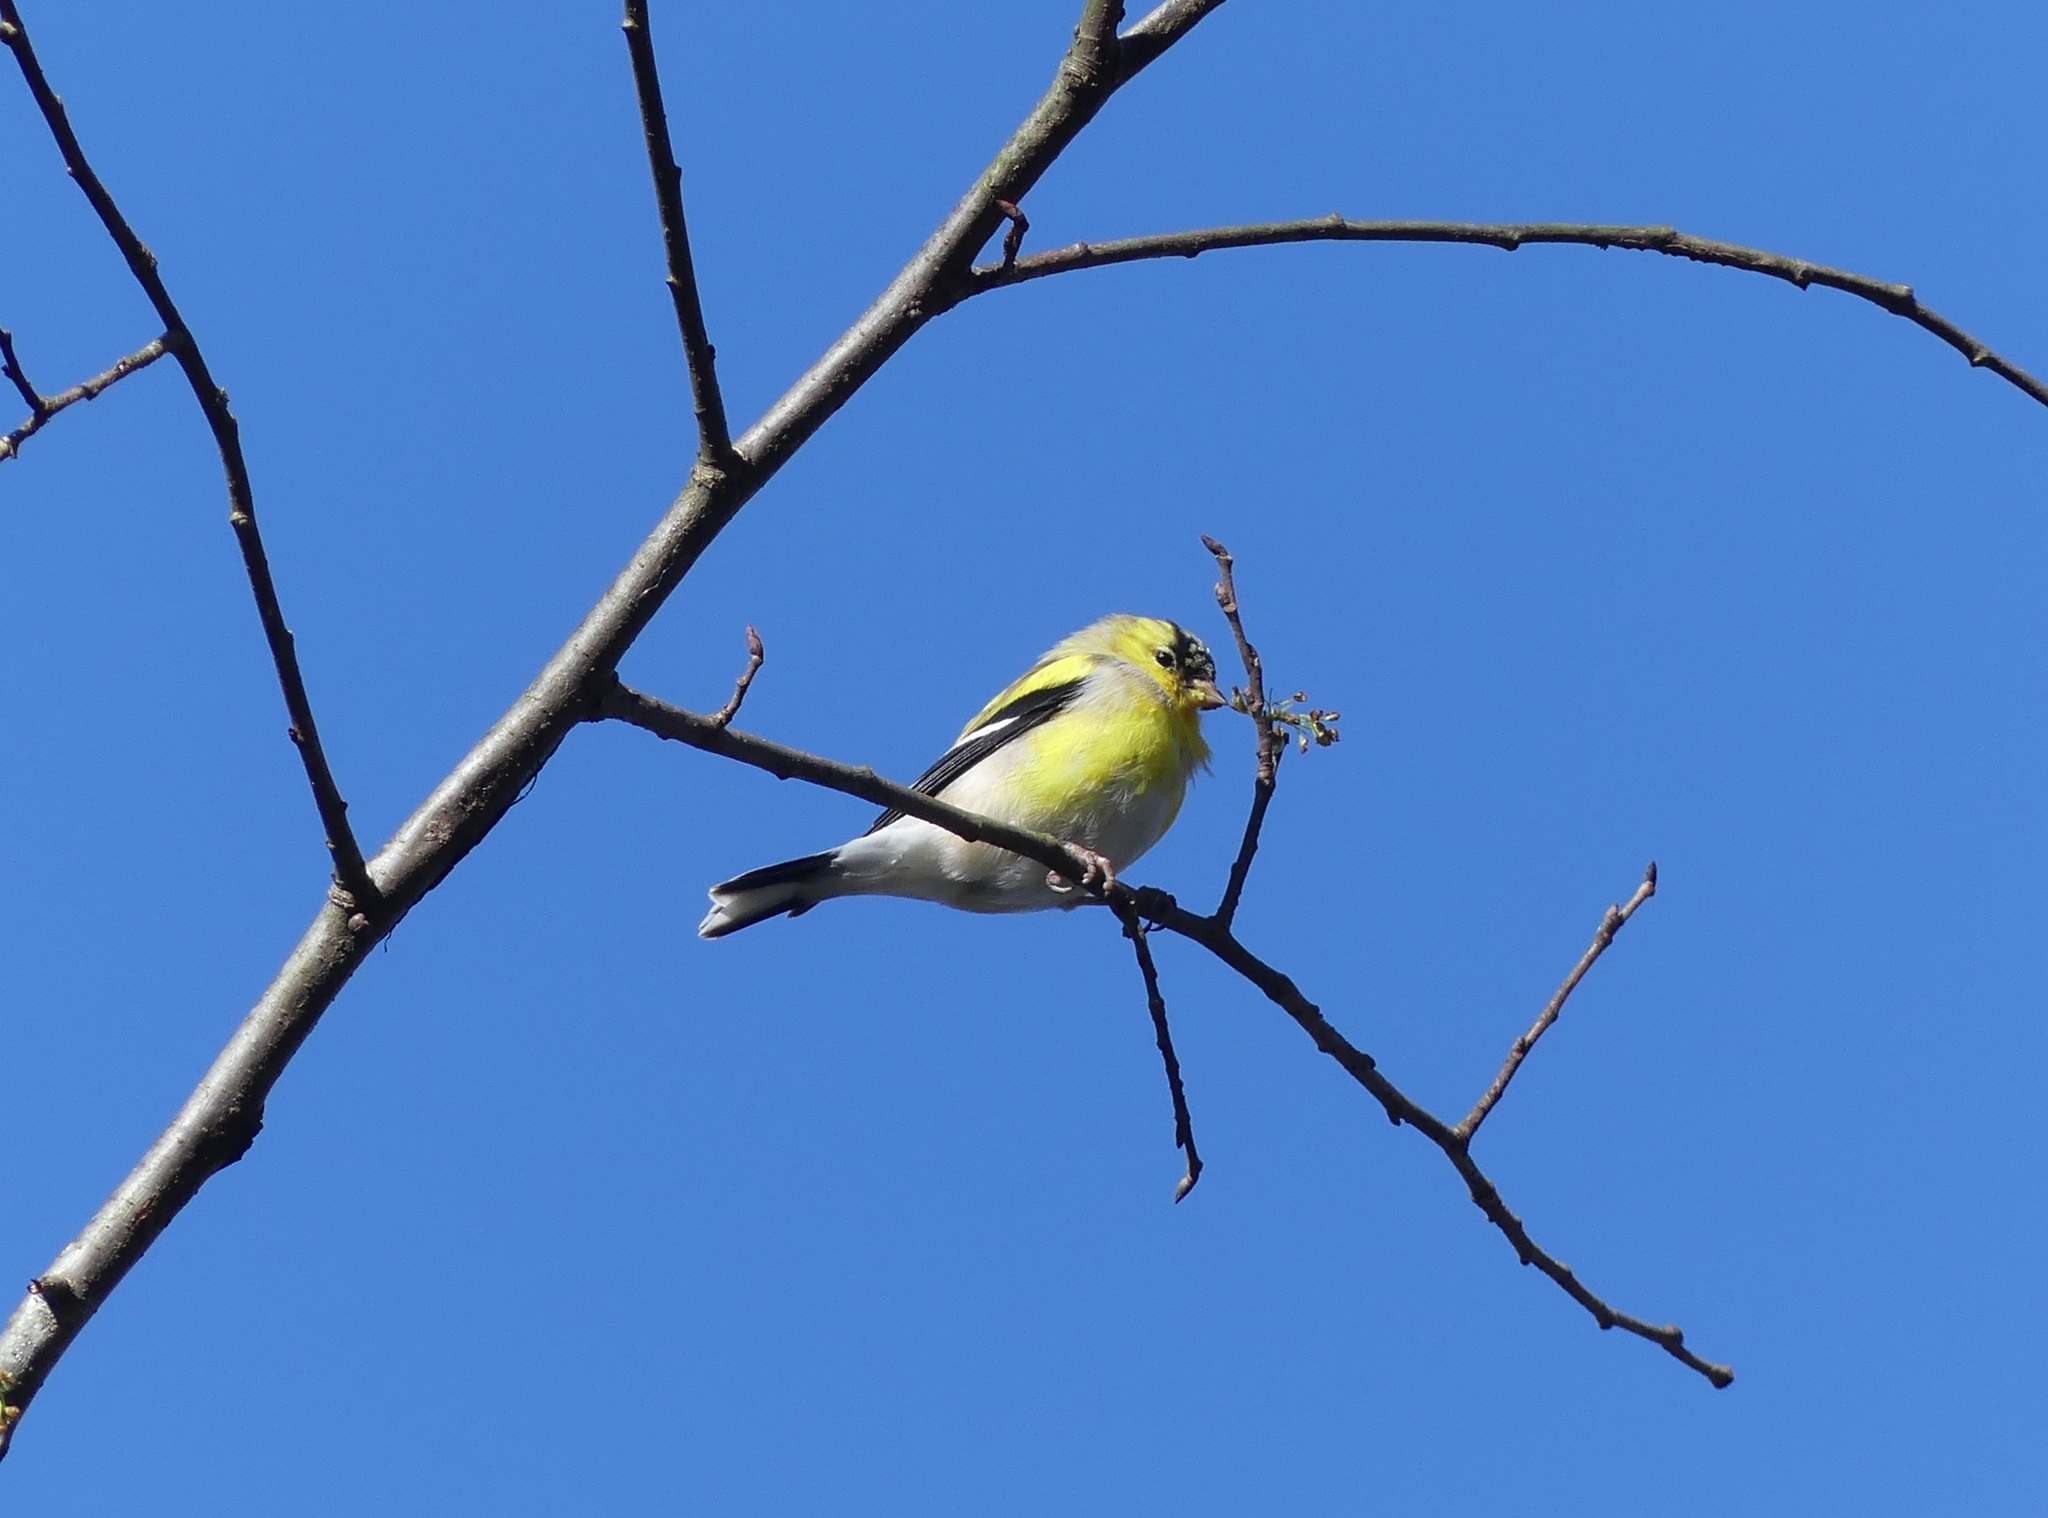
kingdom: Animalia
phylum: Chordata
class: Aves
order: Passeriformes
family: Fringillidae
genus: Spinus
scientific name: Spinus tristis
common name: American goldfinch
